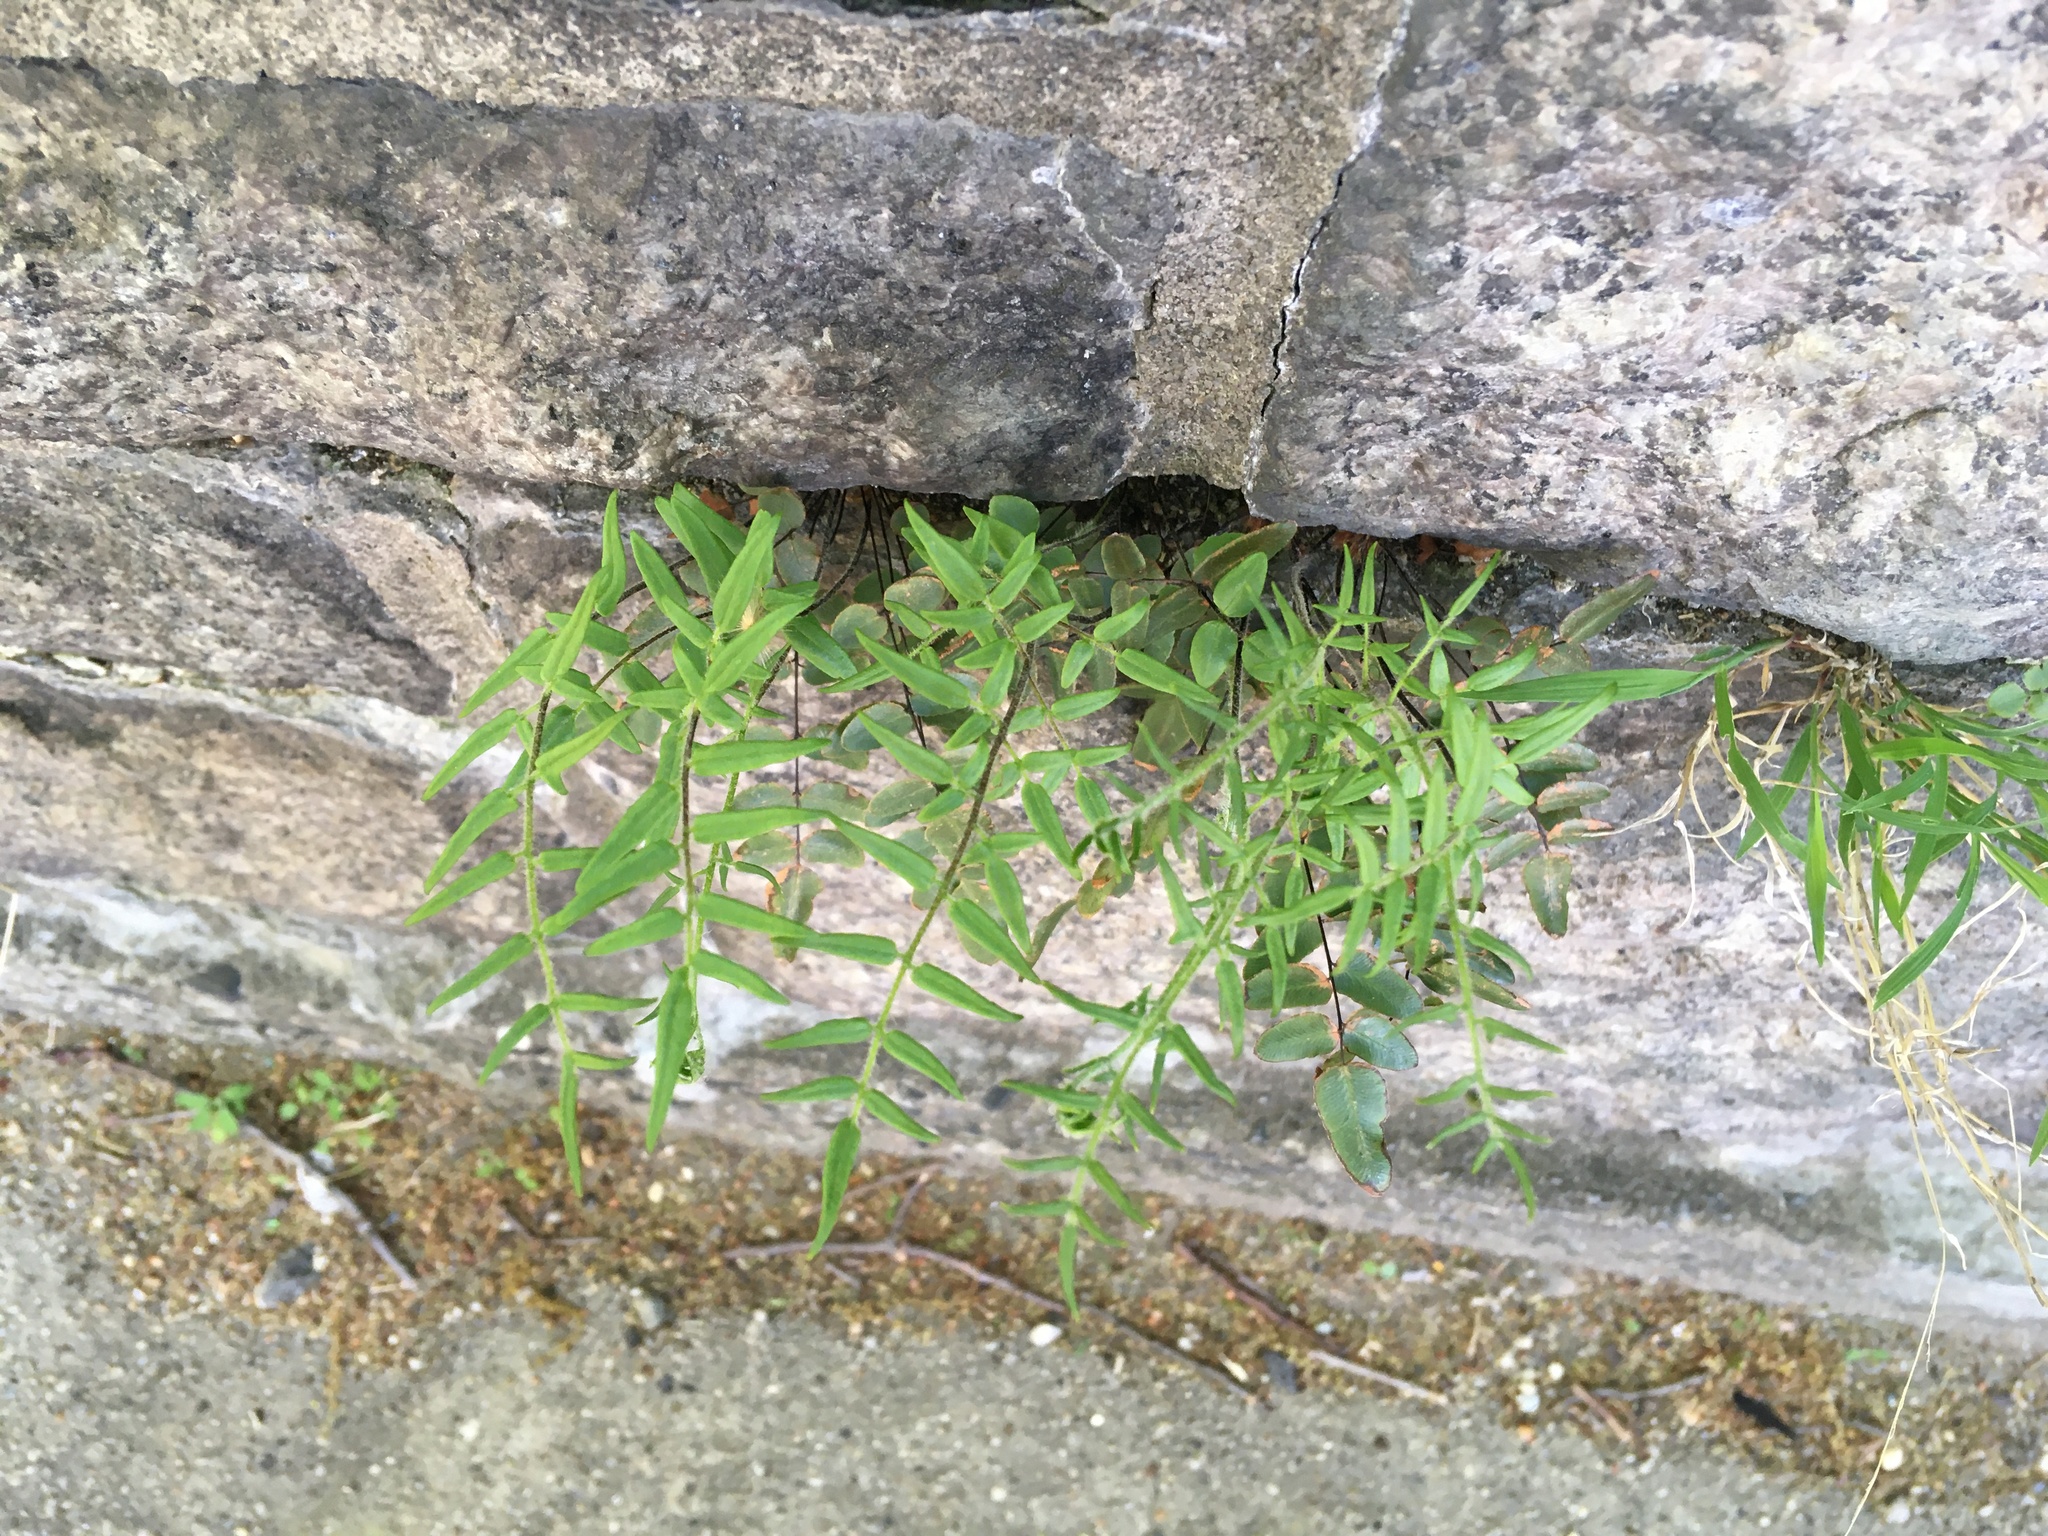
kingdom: Plantae
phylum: Tracheophyta
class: Polypodiopsida
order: Polypodiales
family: Pteridaceae
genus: Pellaea
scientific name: Pellaea atropurpurea
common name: Hairy cliffbrake
